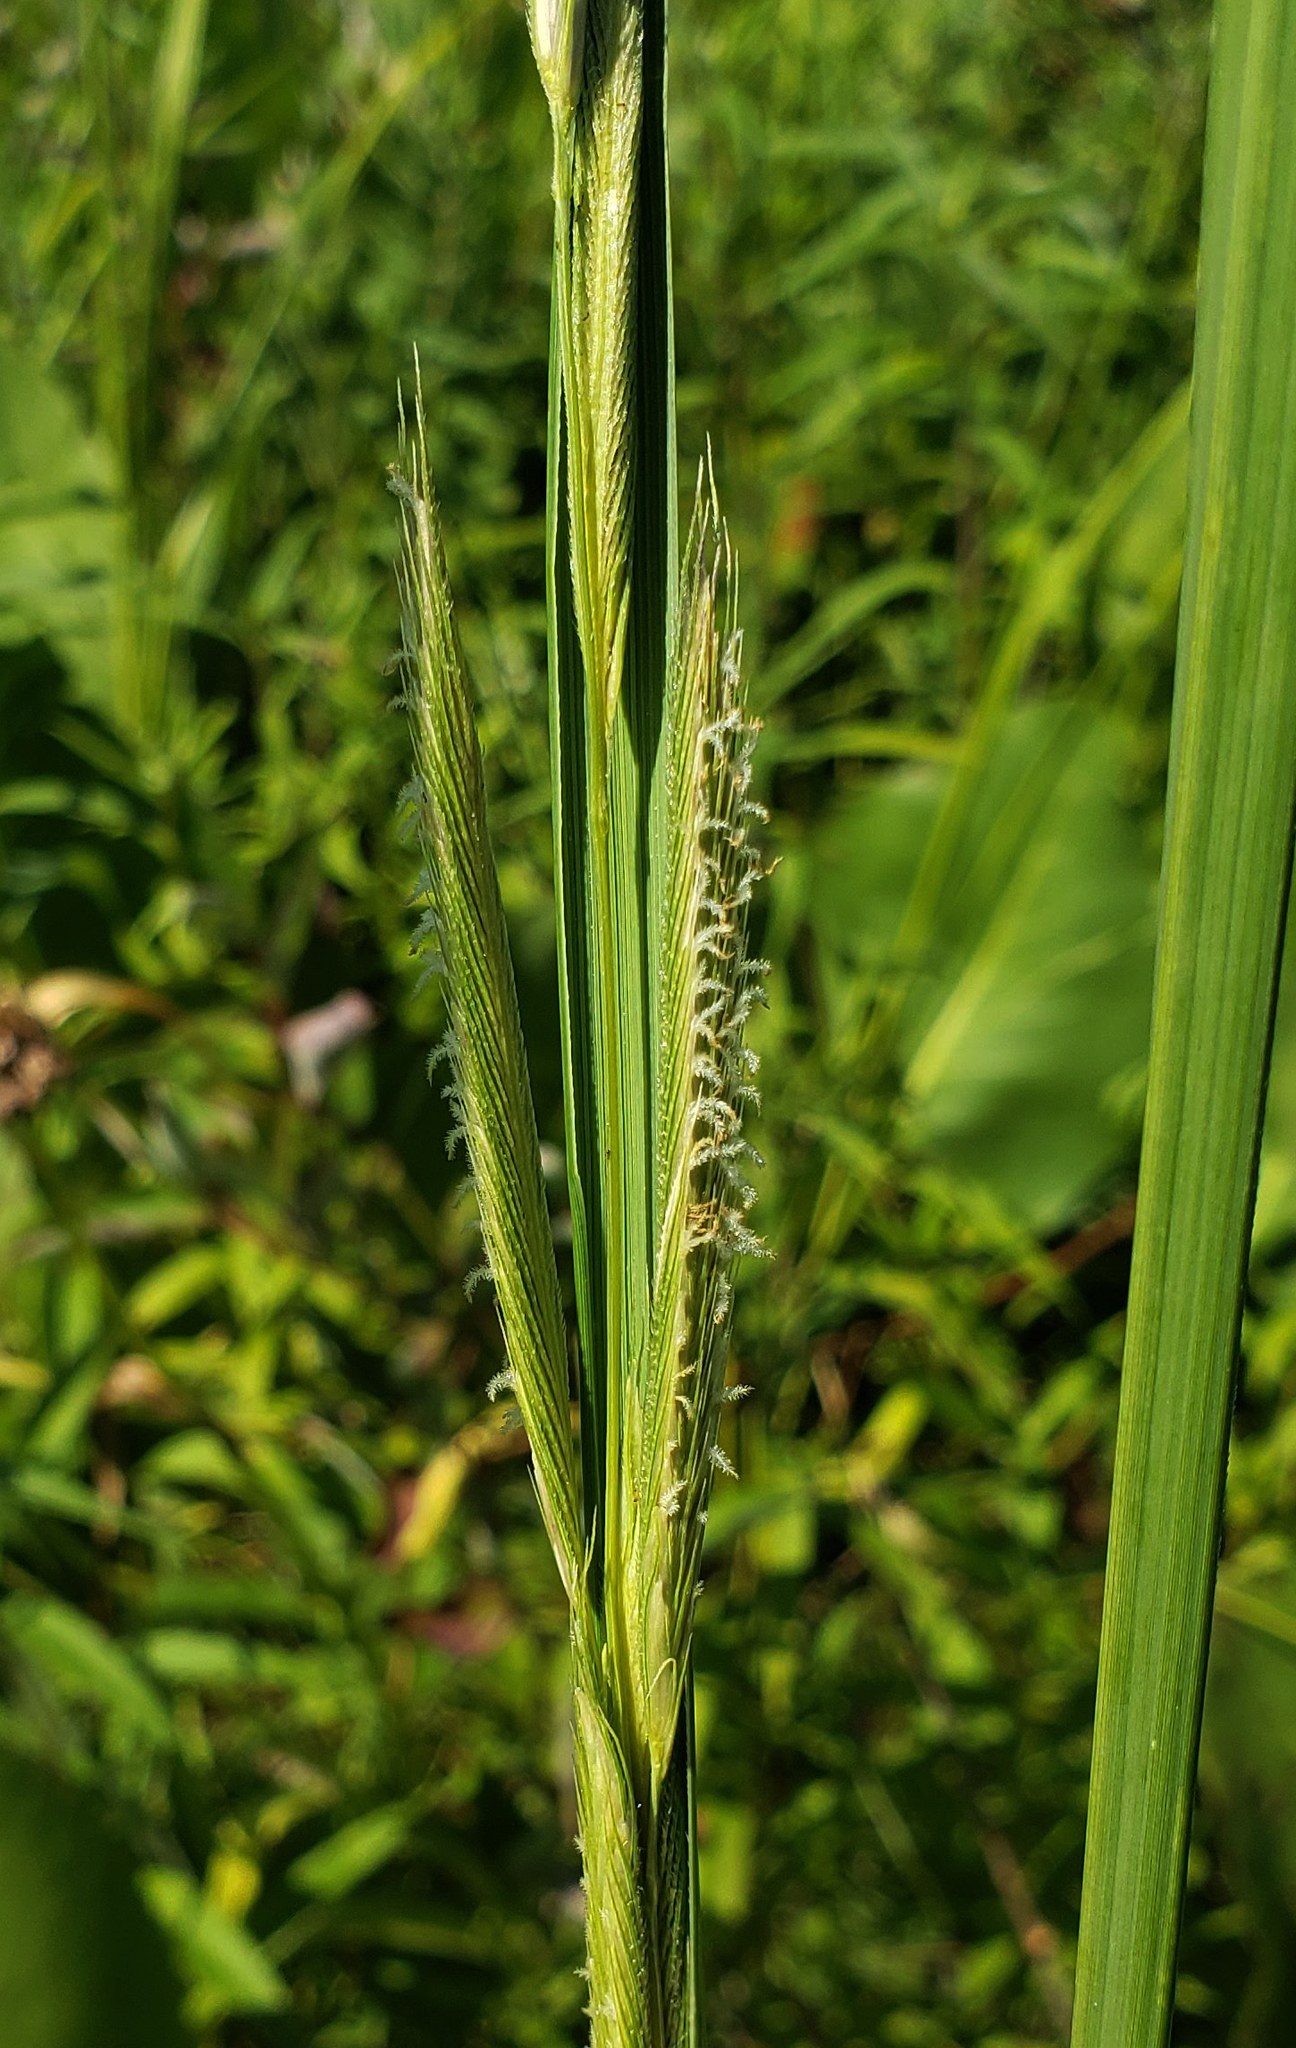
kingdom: Plantae
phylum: Tracheophyta
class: Liliopsida
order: Poales
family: Poaceae
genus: Sporobolus
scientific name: Sporobolus michauxianus
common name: Freshwater cordgrass
